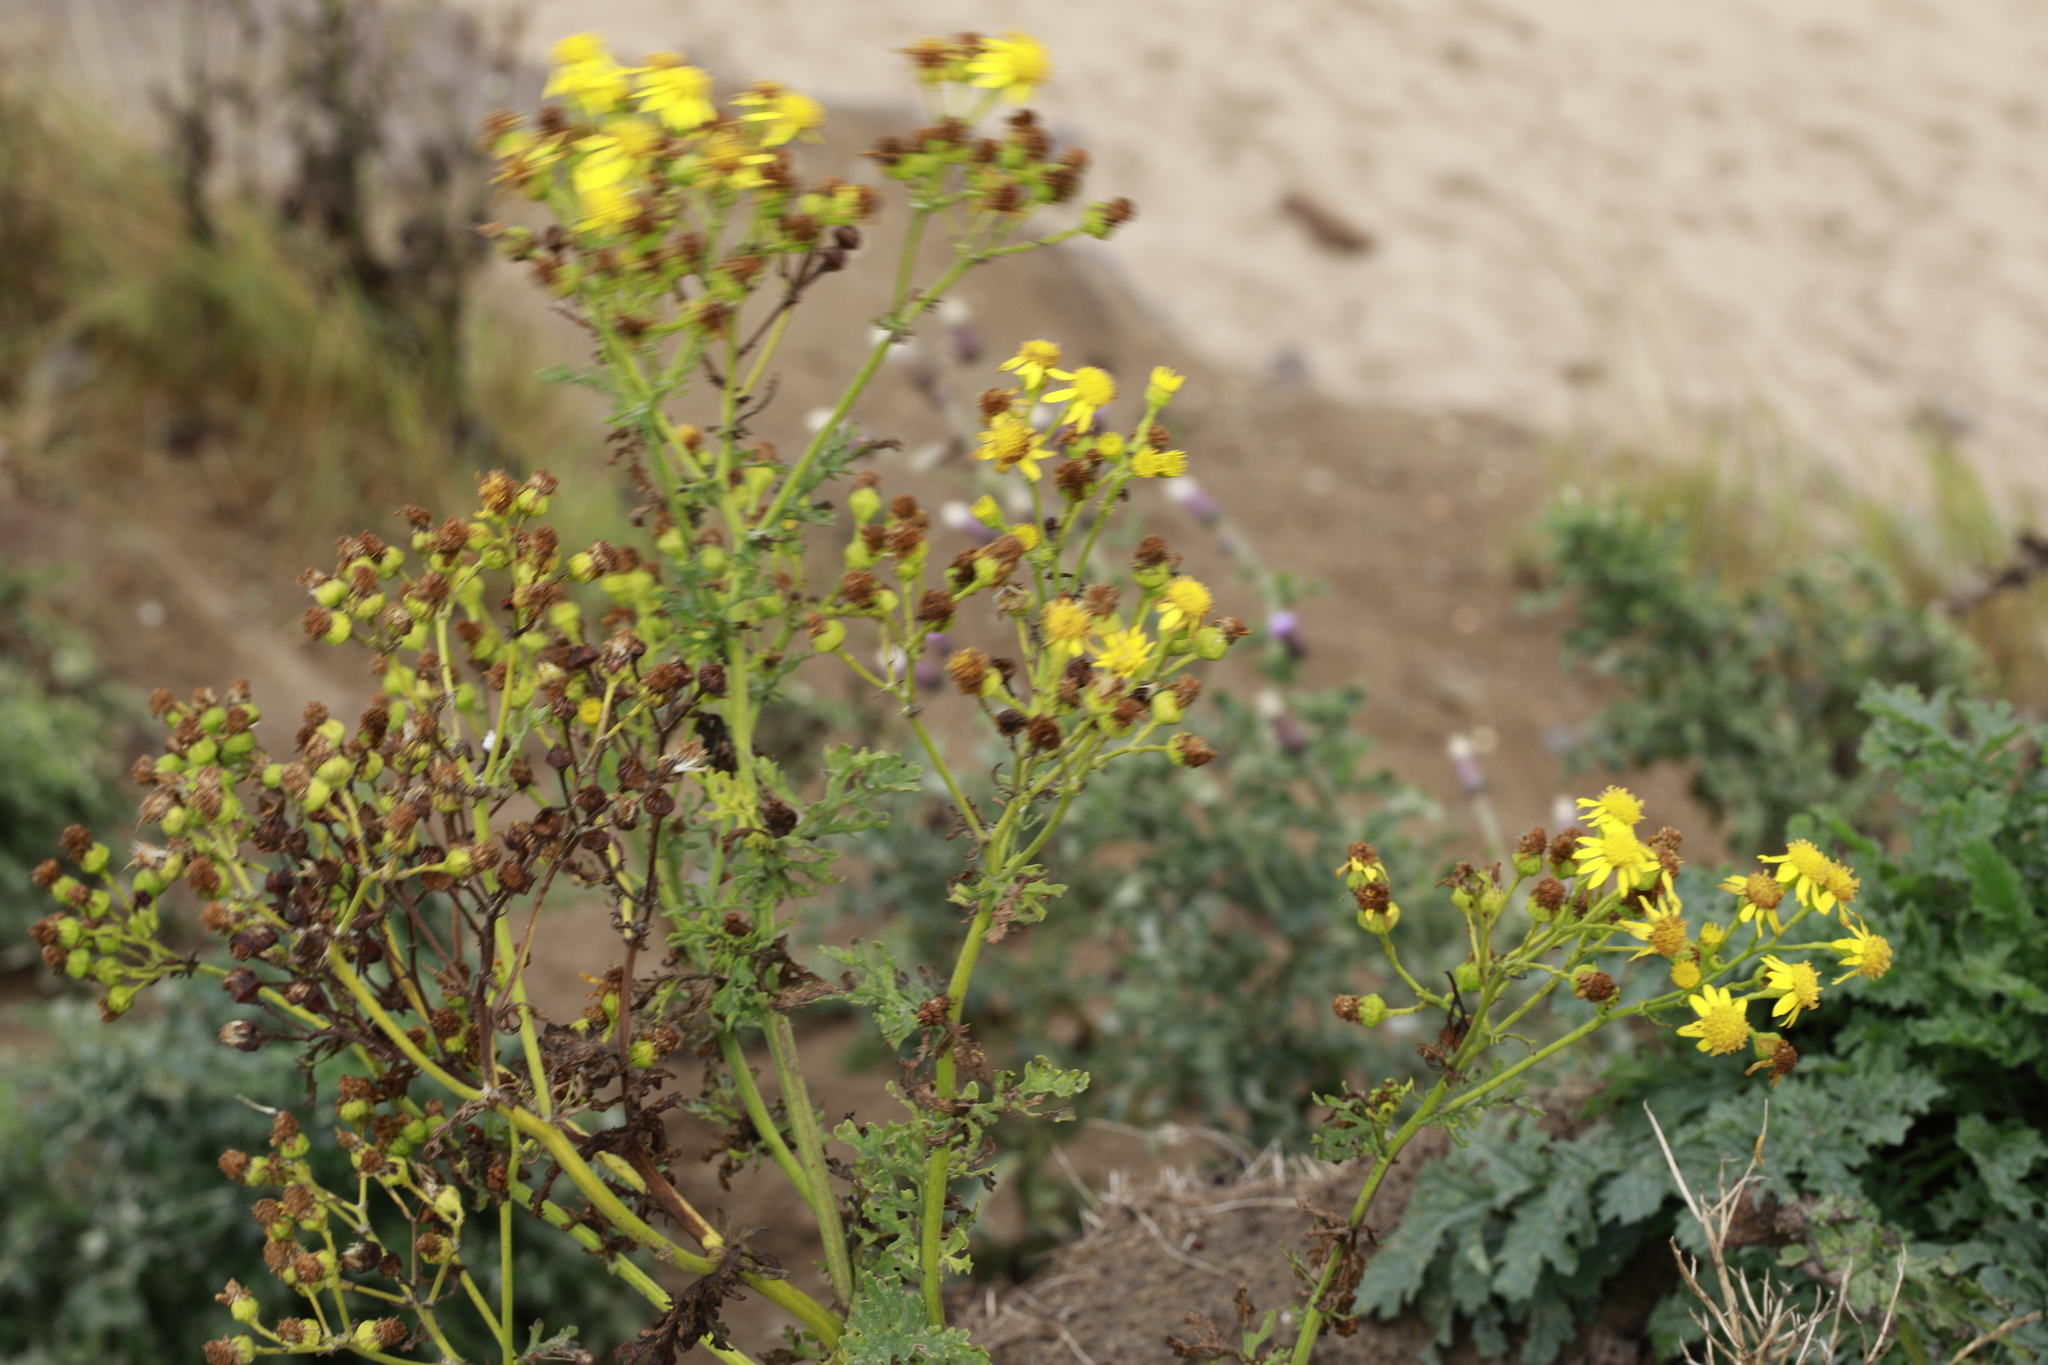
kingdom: Plantae
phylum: Tracheophyta
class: Magnoliopsida
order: Asterales
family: Asteraceae
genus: Jacobaea
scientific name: Jacobaea vulgaris
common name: Stinking willie
